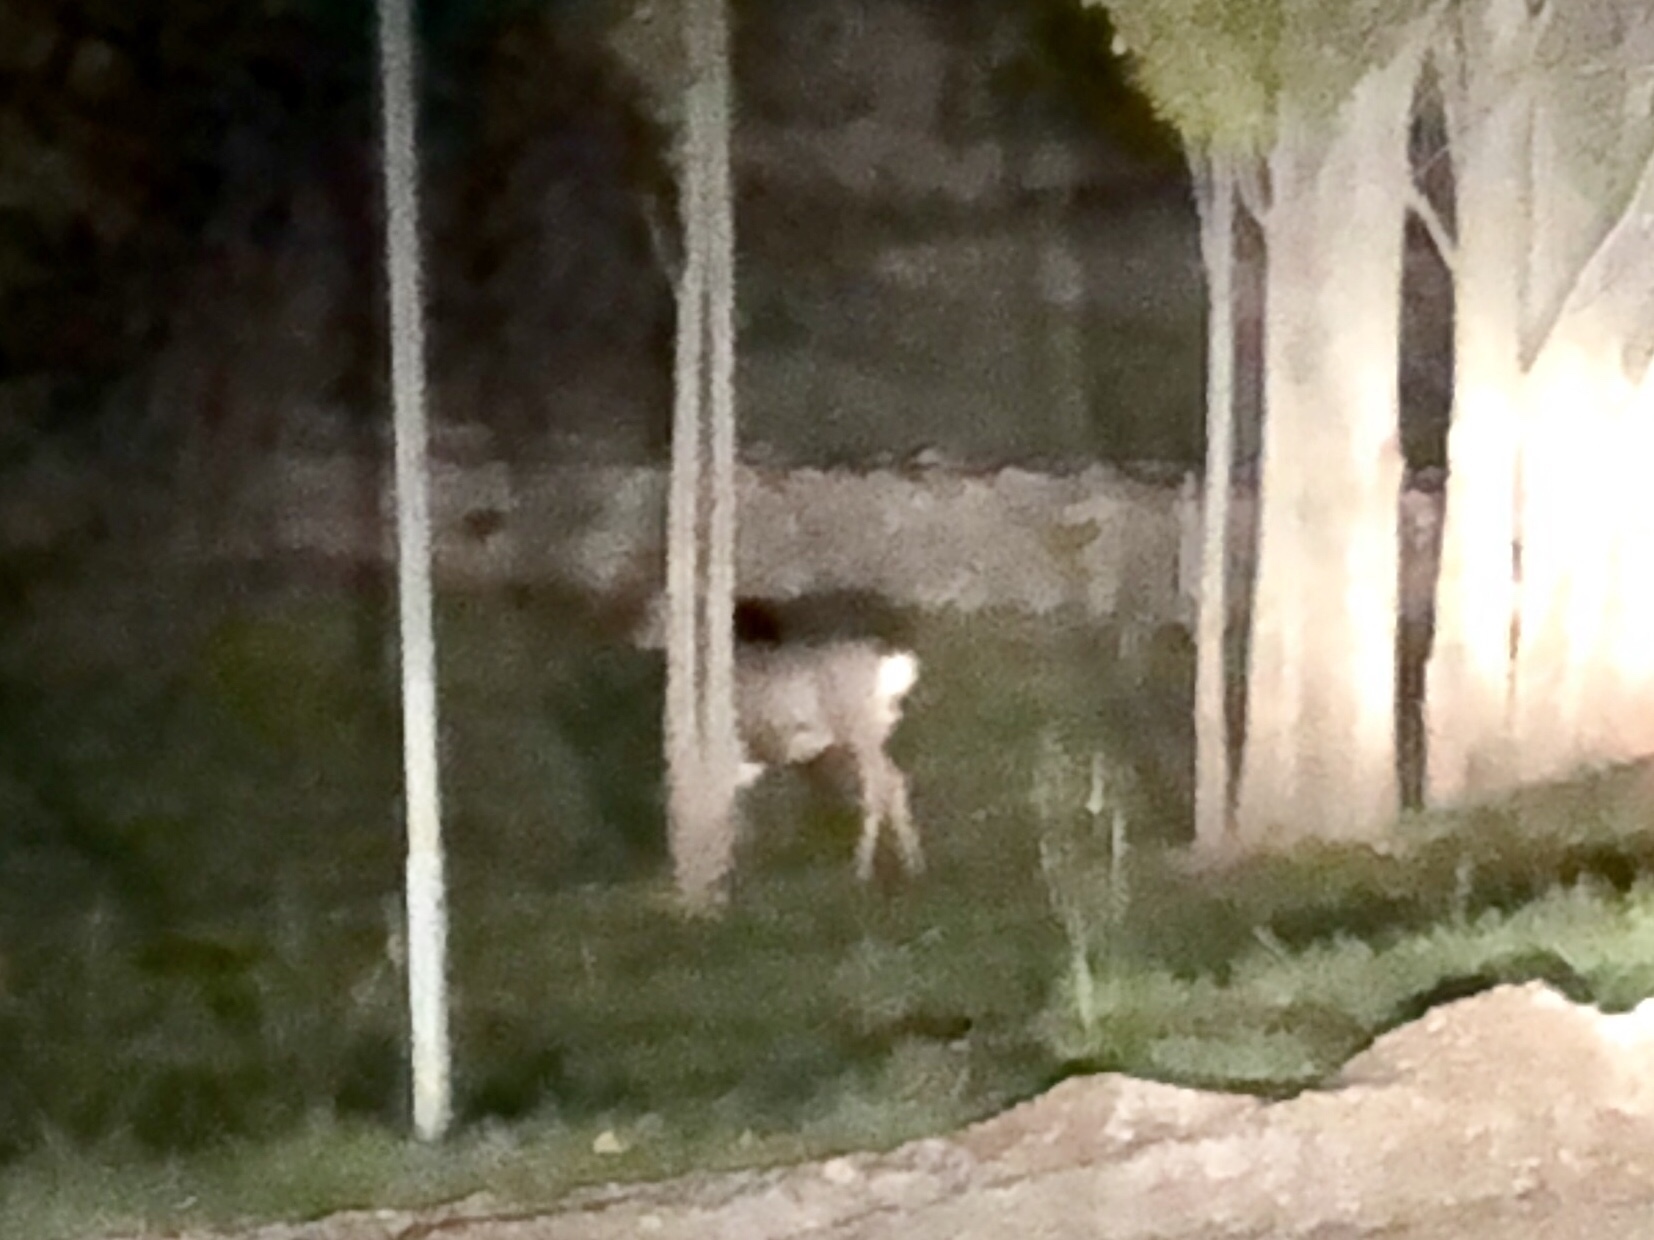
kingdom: Animalia
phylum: Chordata
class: Mammalia
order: Artiodactyla
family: Cervidae
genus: Odocoileus
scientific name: Odocoileus hemionus
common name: Mule deer
